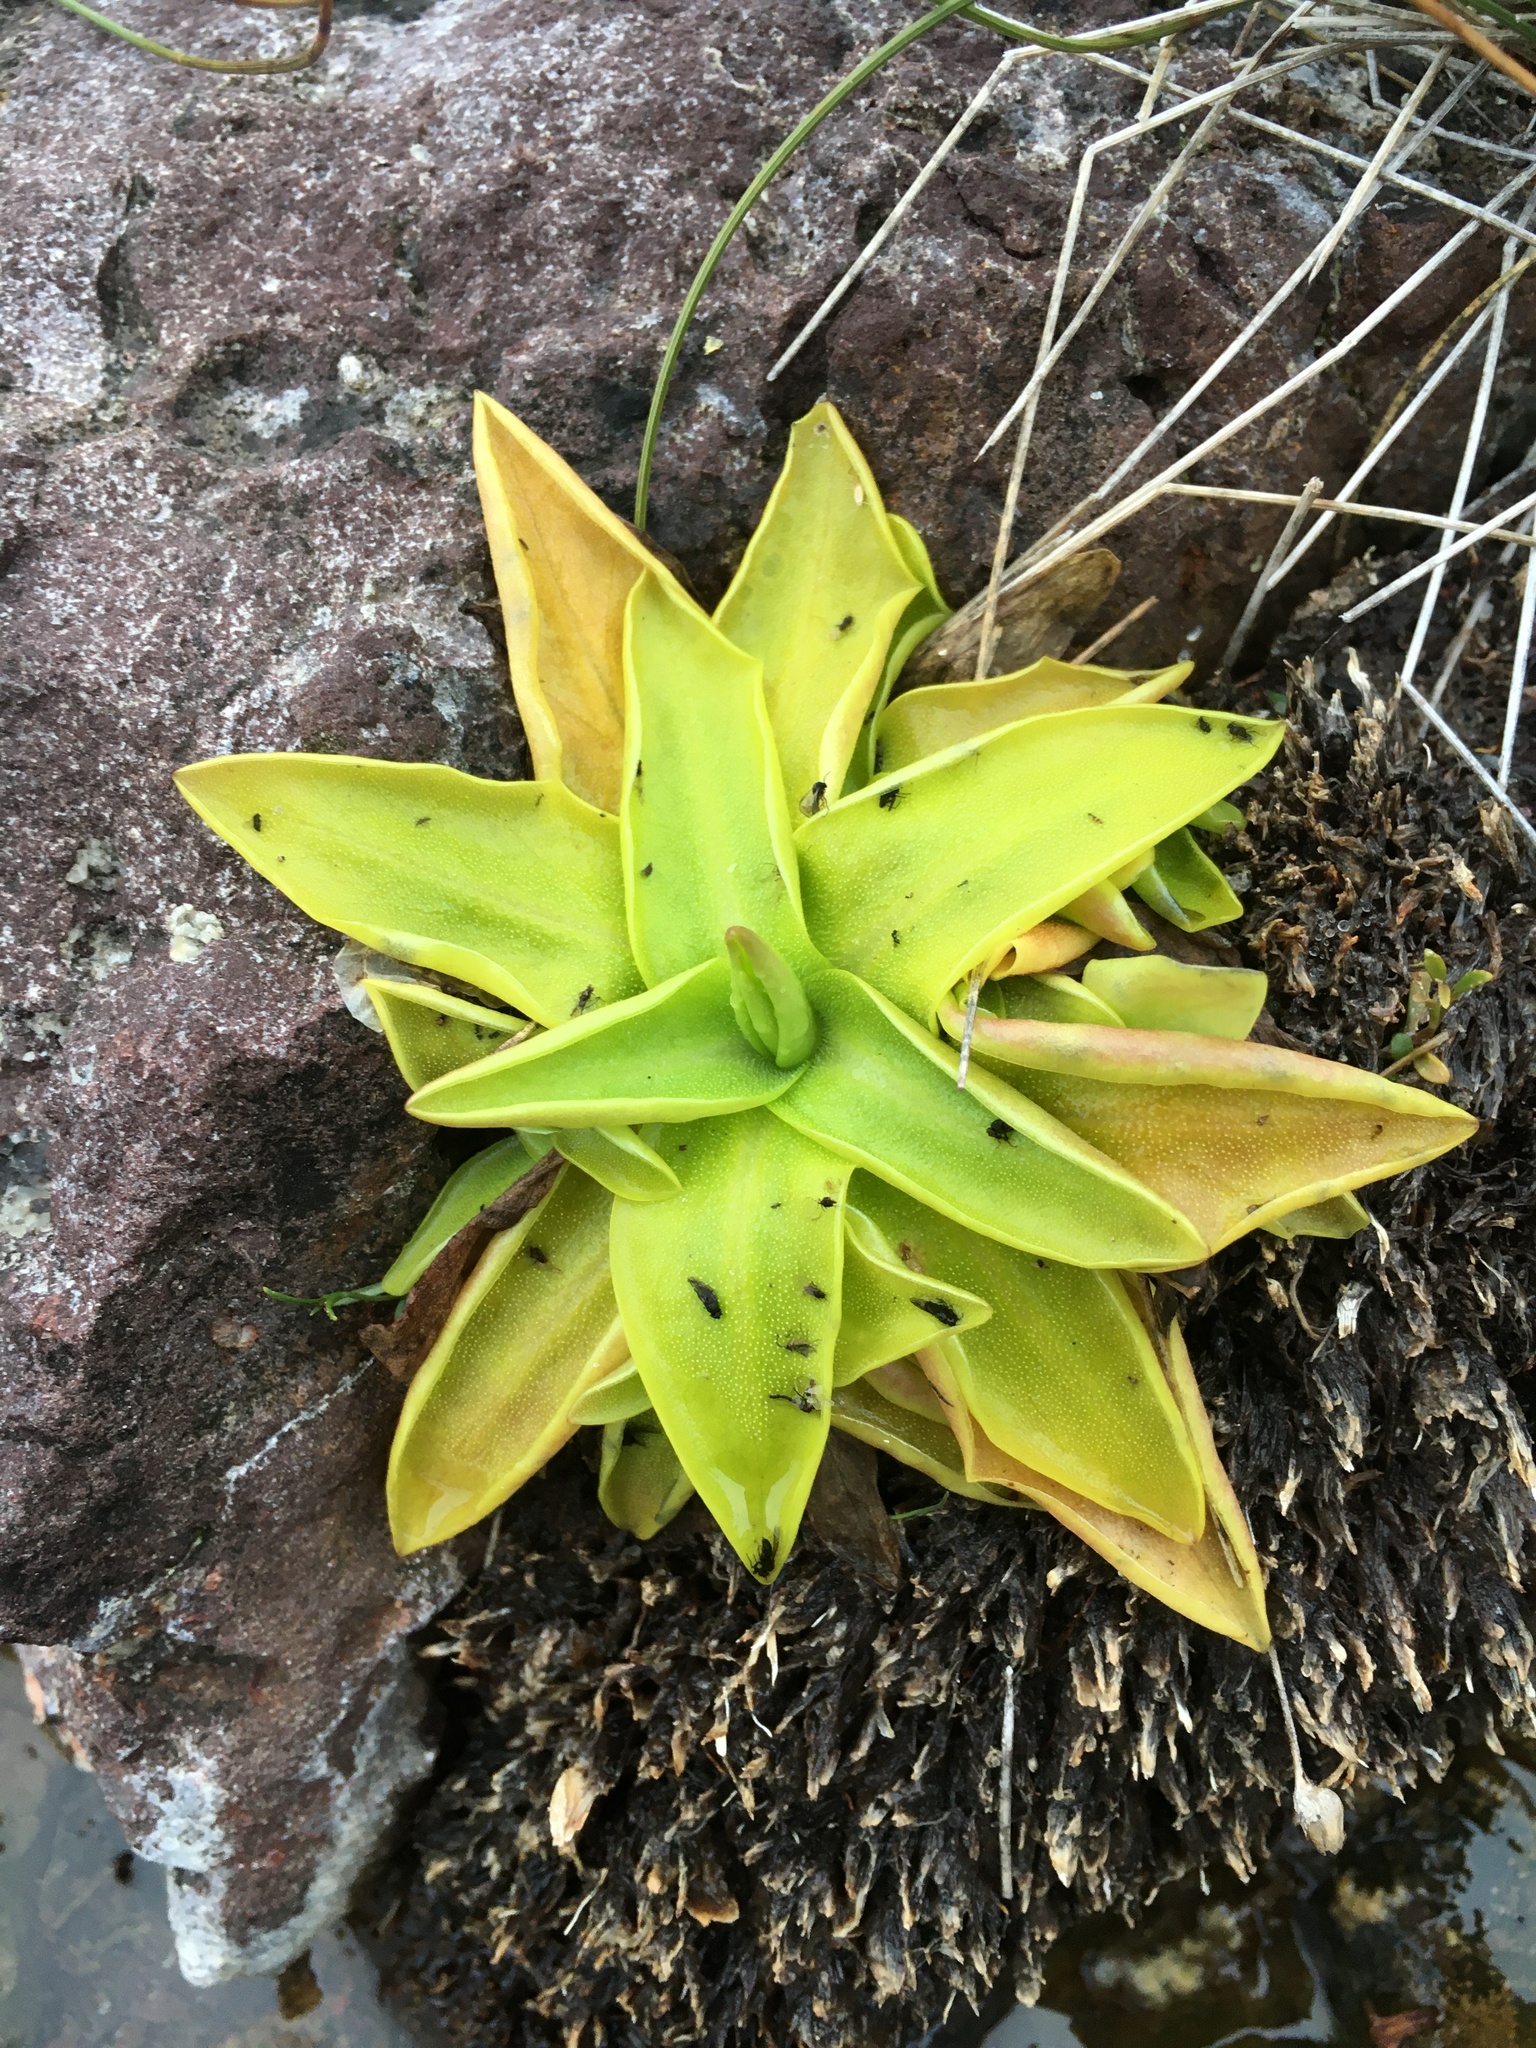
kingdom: Plantae
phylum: Tracheophyta
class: Magnoliopsida
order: Lamiales
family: Lentibulariaceae
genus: Pinguicula
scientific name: Pinguicula vulgaris
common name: Common butterwort
